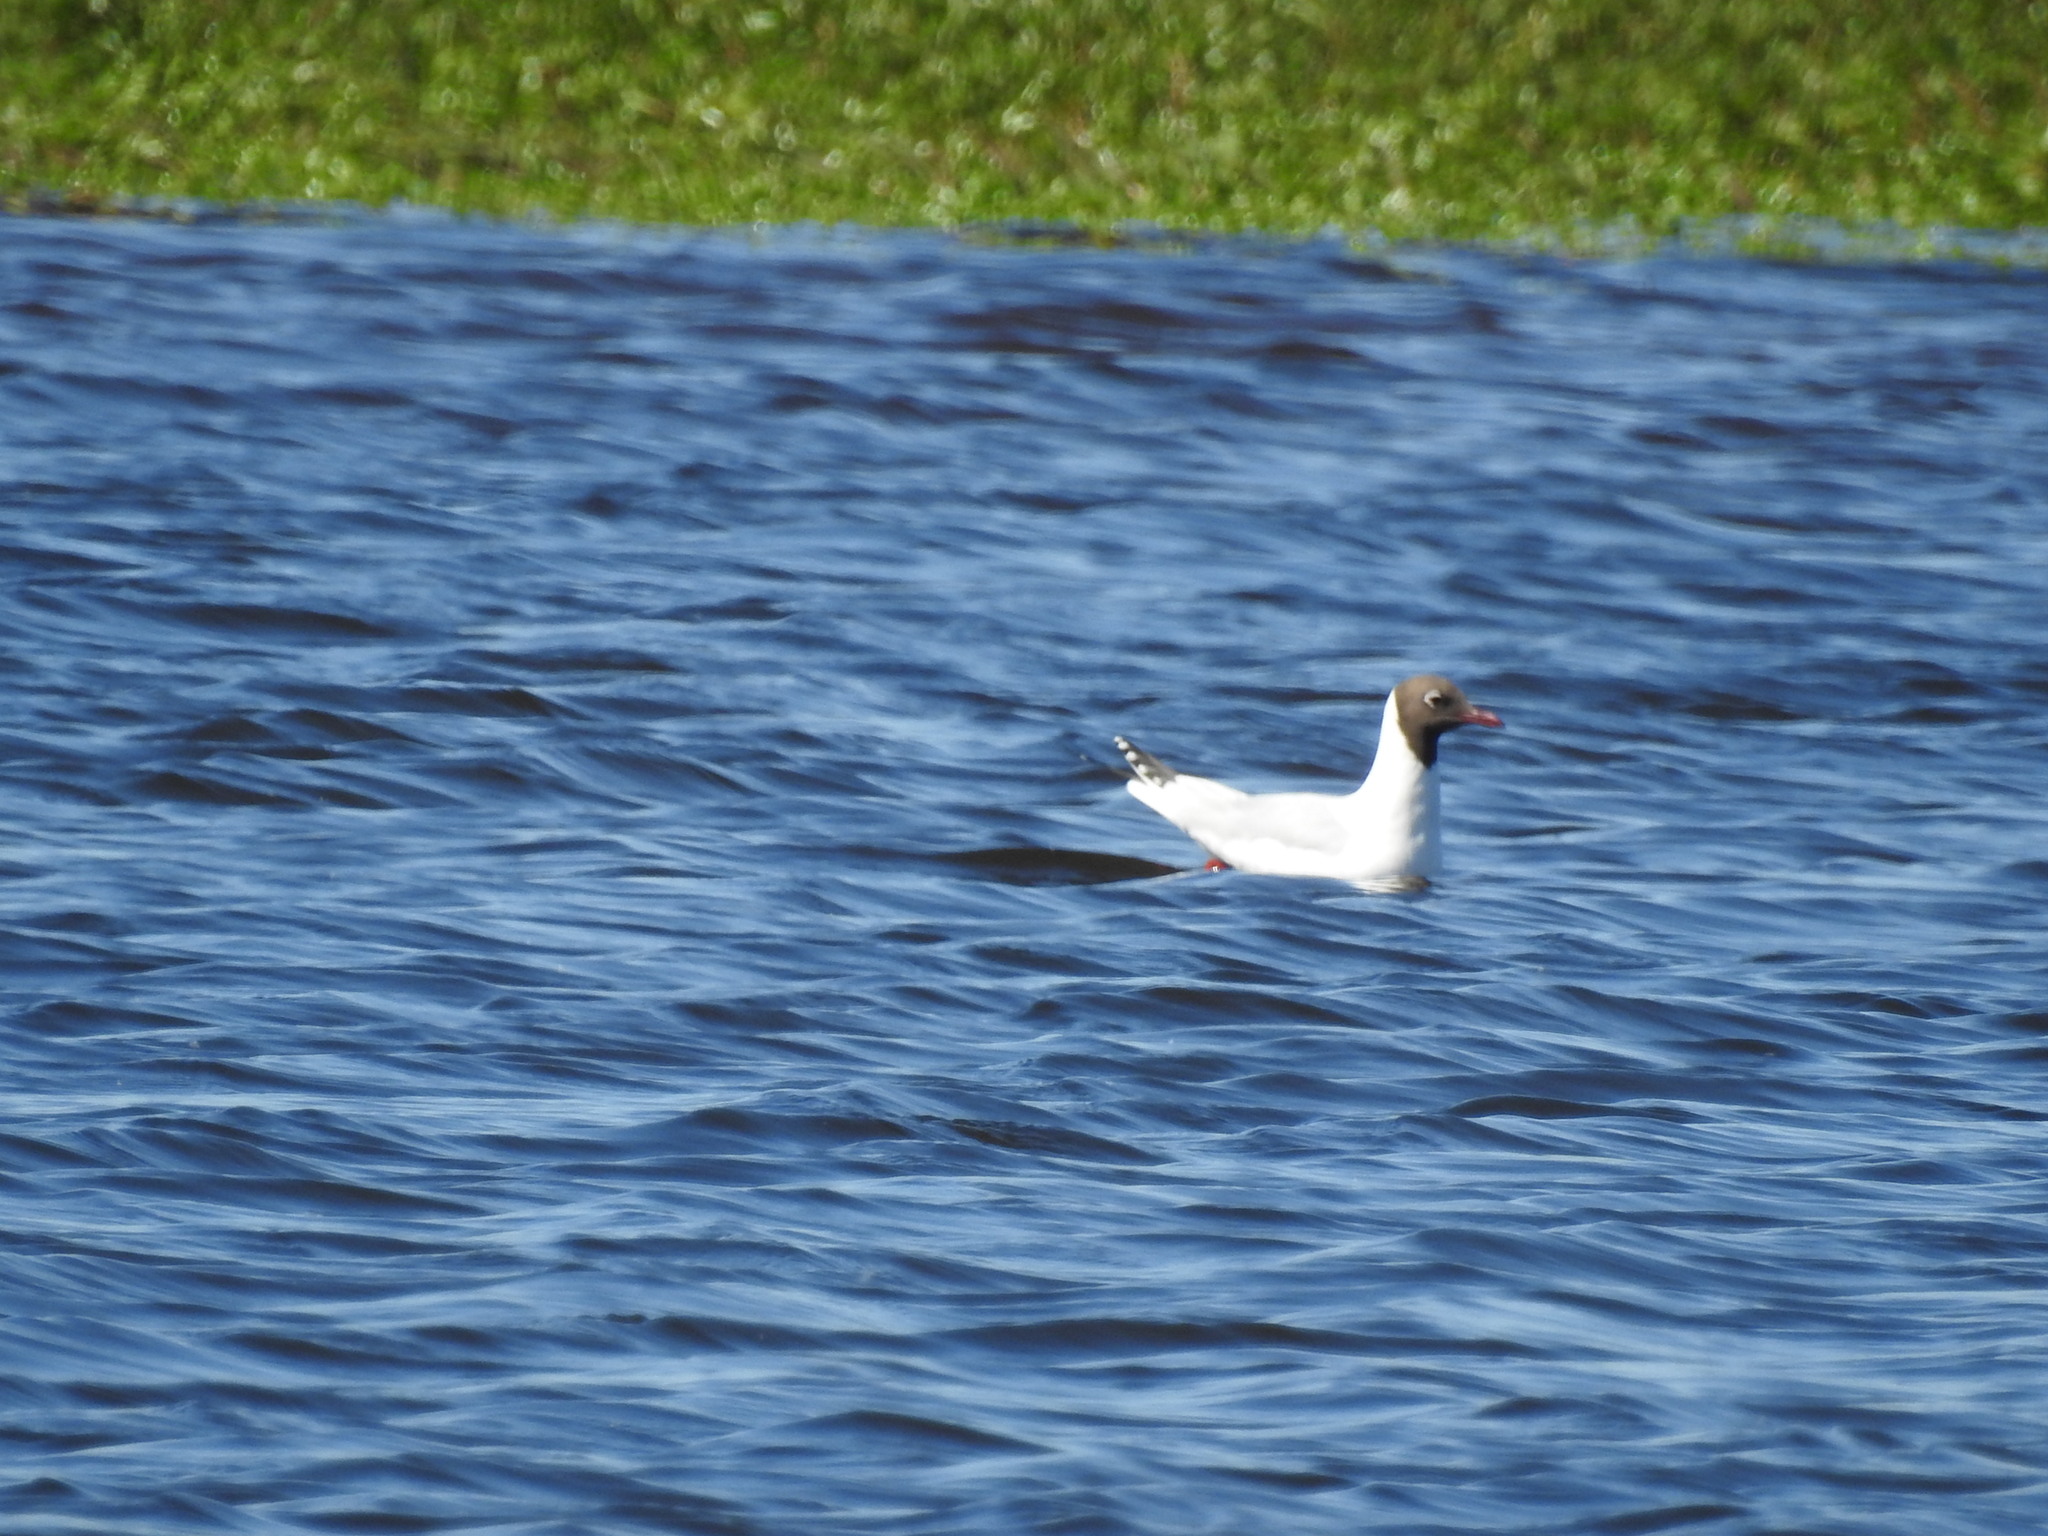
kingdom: Animalia
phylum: Chordata
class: Aves
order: Charadriiformes
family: Laridae
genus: Chroicocephalus
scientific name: Chroicocephalus maculipennis
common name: Brown-hooded gull
